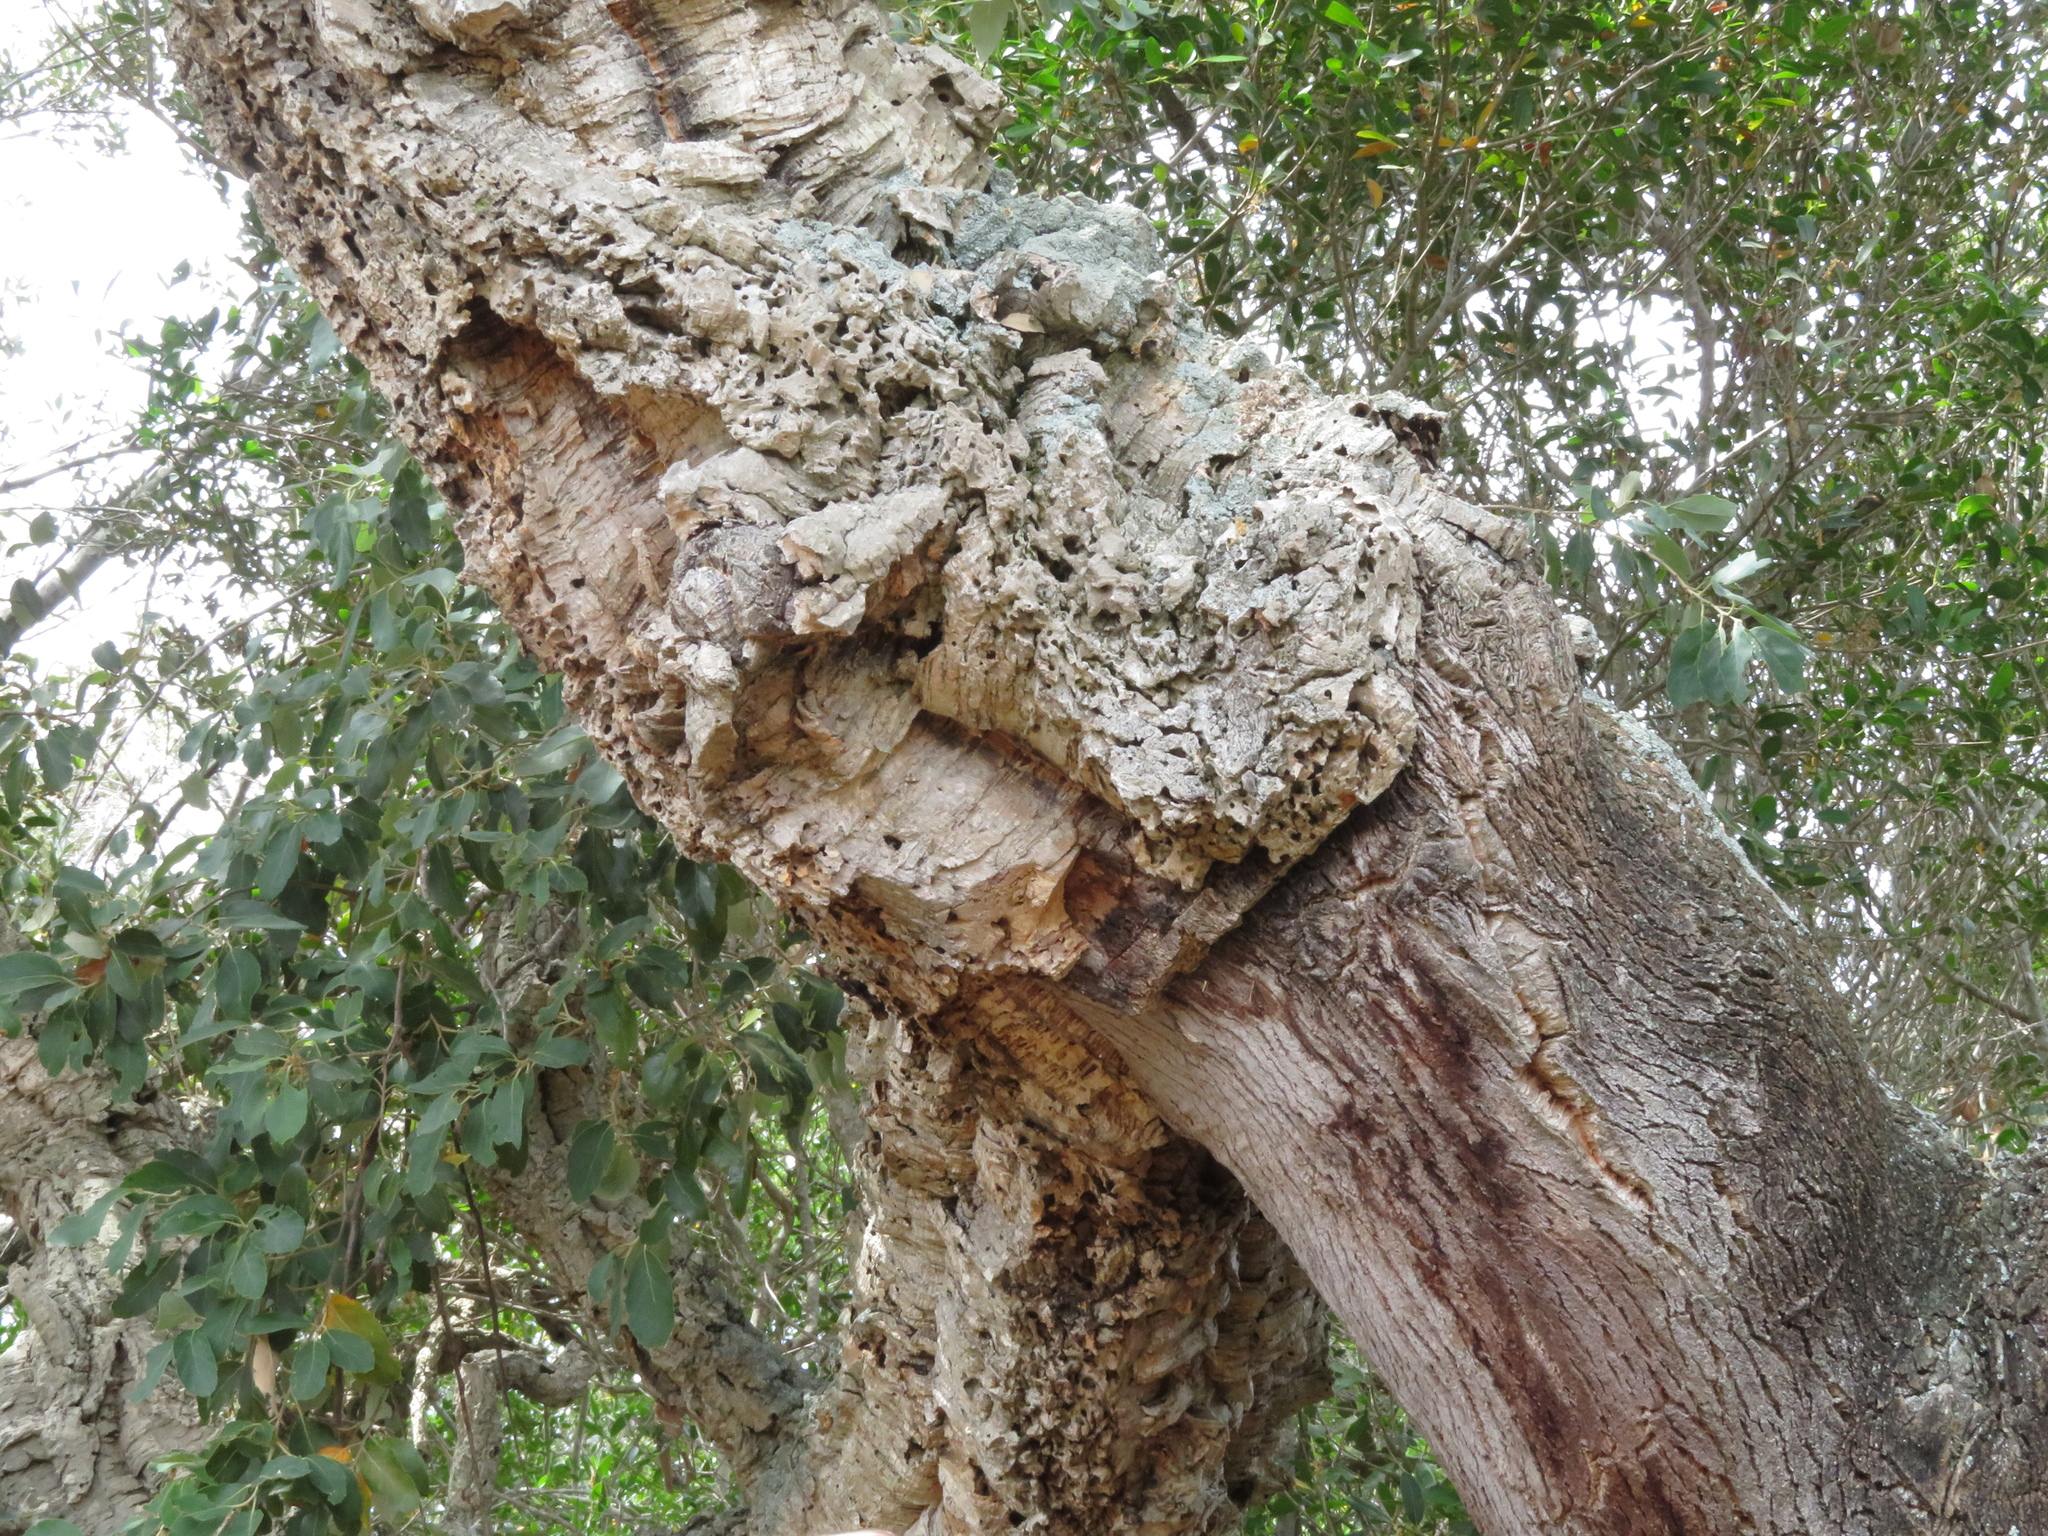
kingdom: Plantae
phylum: Tracheophyta
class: Magnoliopsida
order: Fagales
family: Fagaceae
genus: Quercus
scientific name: Quercus suber
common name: Cork oak
